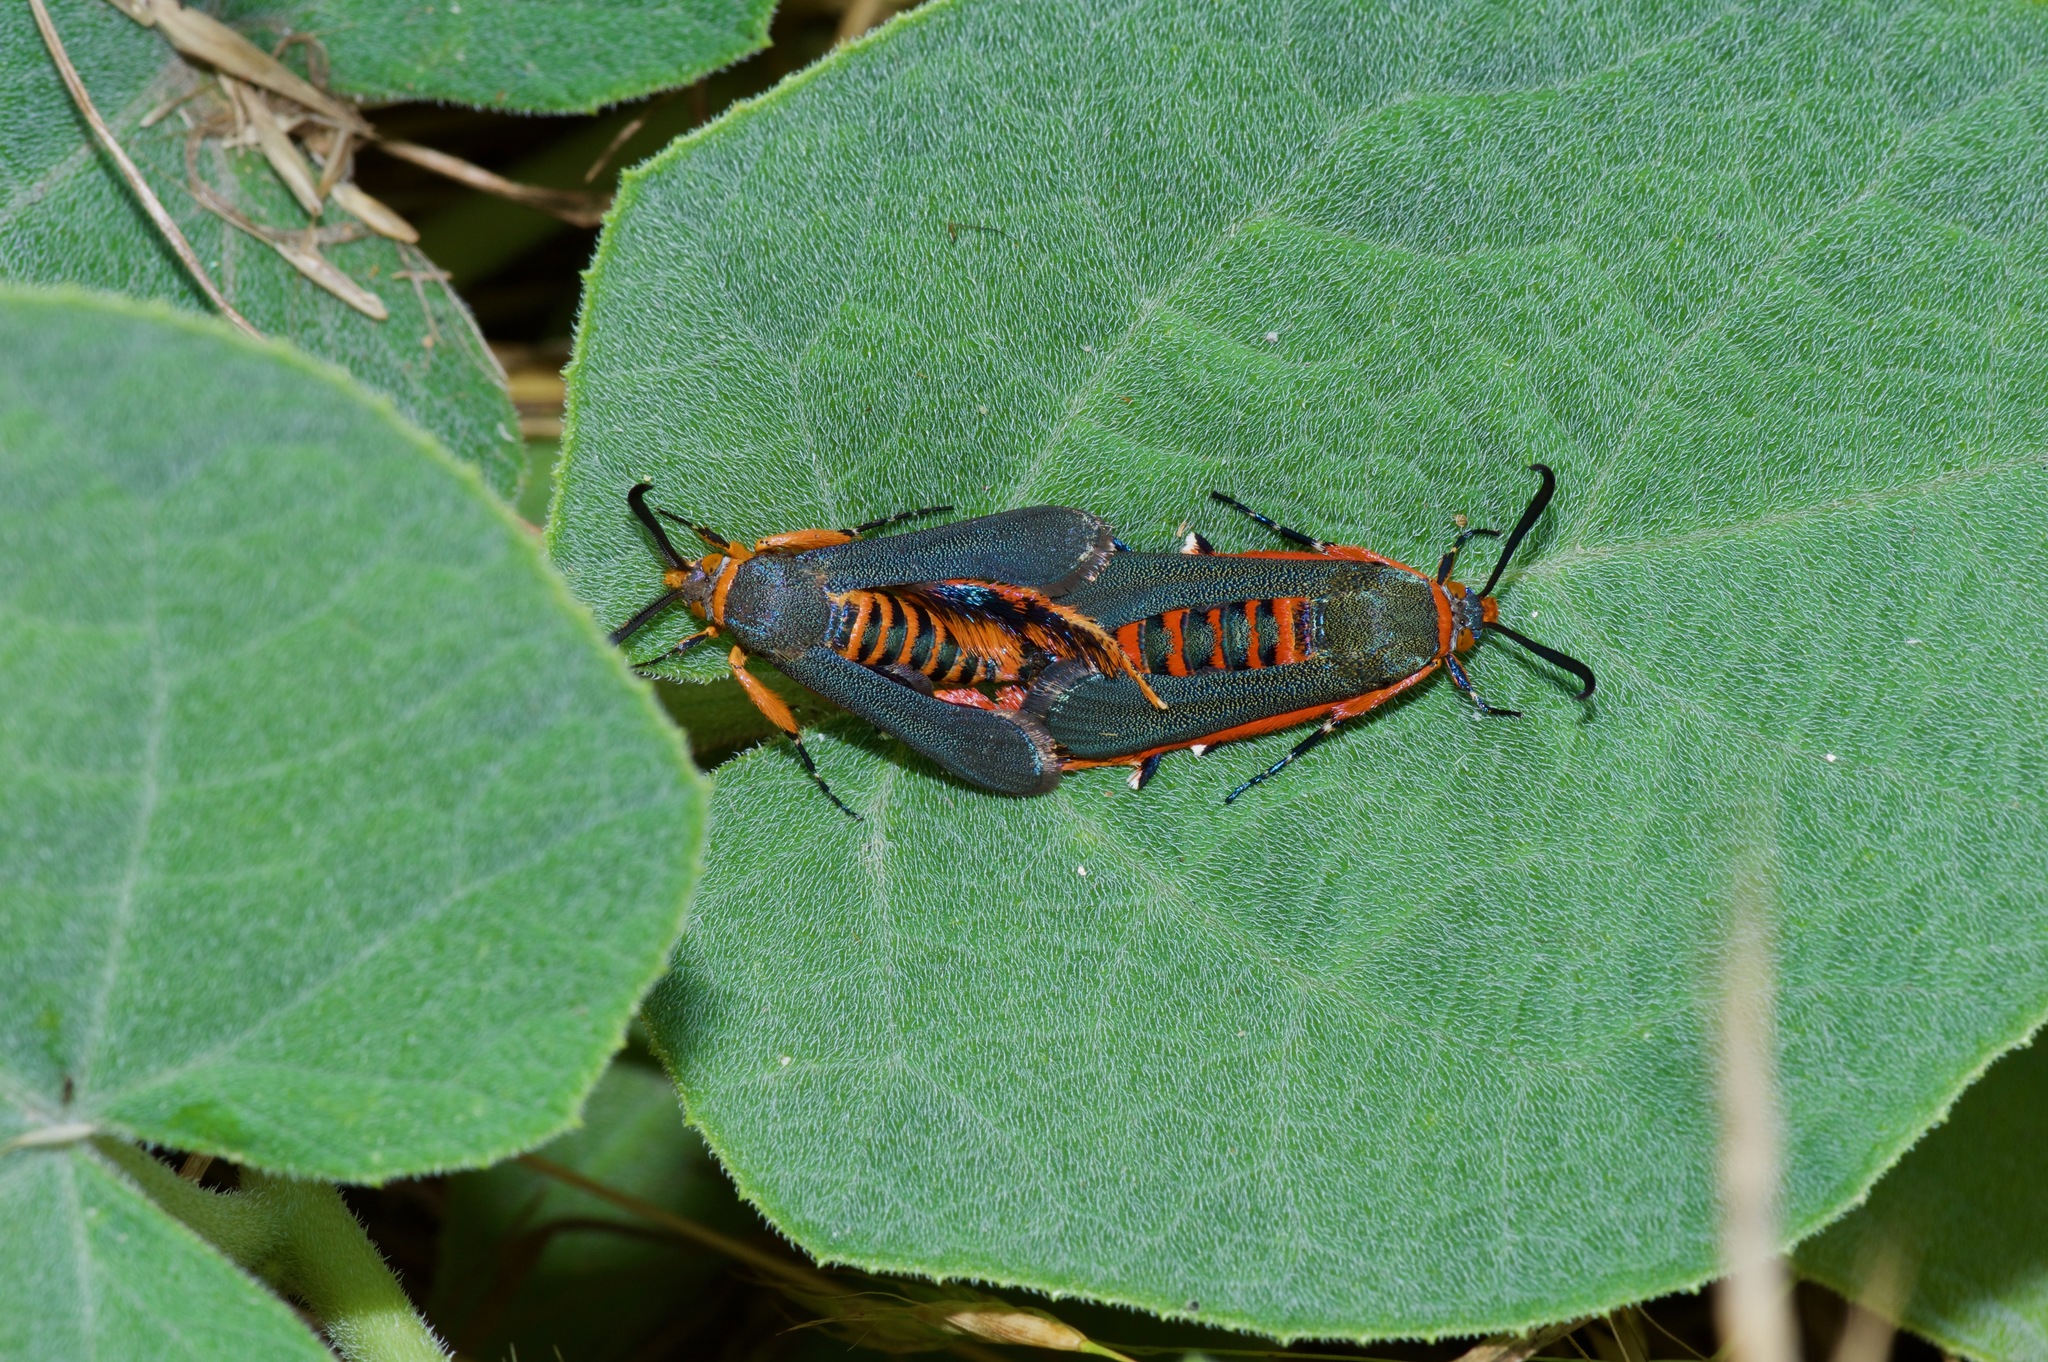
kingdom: Animalia
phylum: Arthropoda
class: Insecta
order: Lepidoptera
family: Sesiidae
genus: Eichlinia
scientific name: Eichlinia grande
